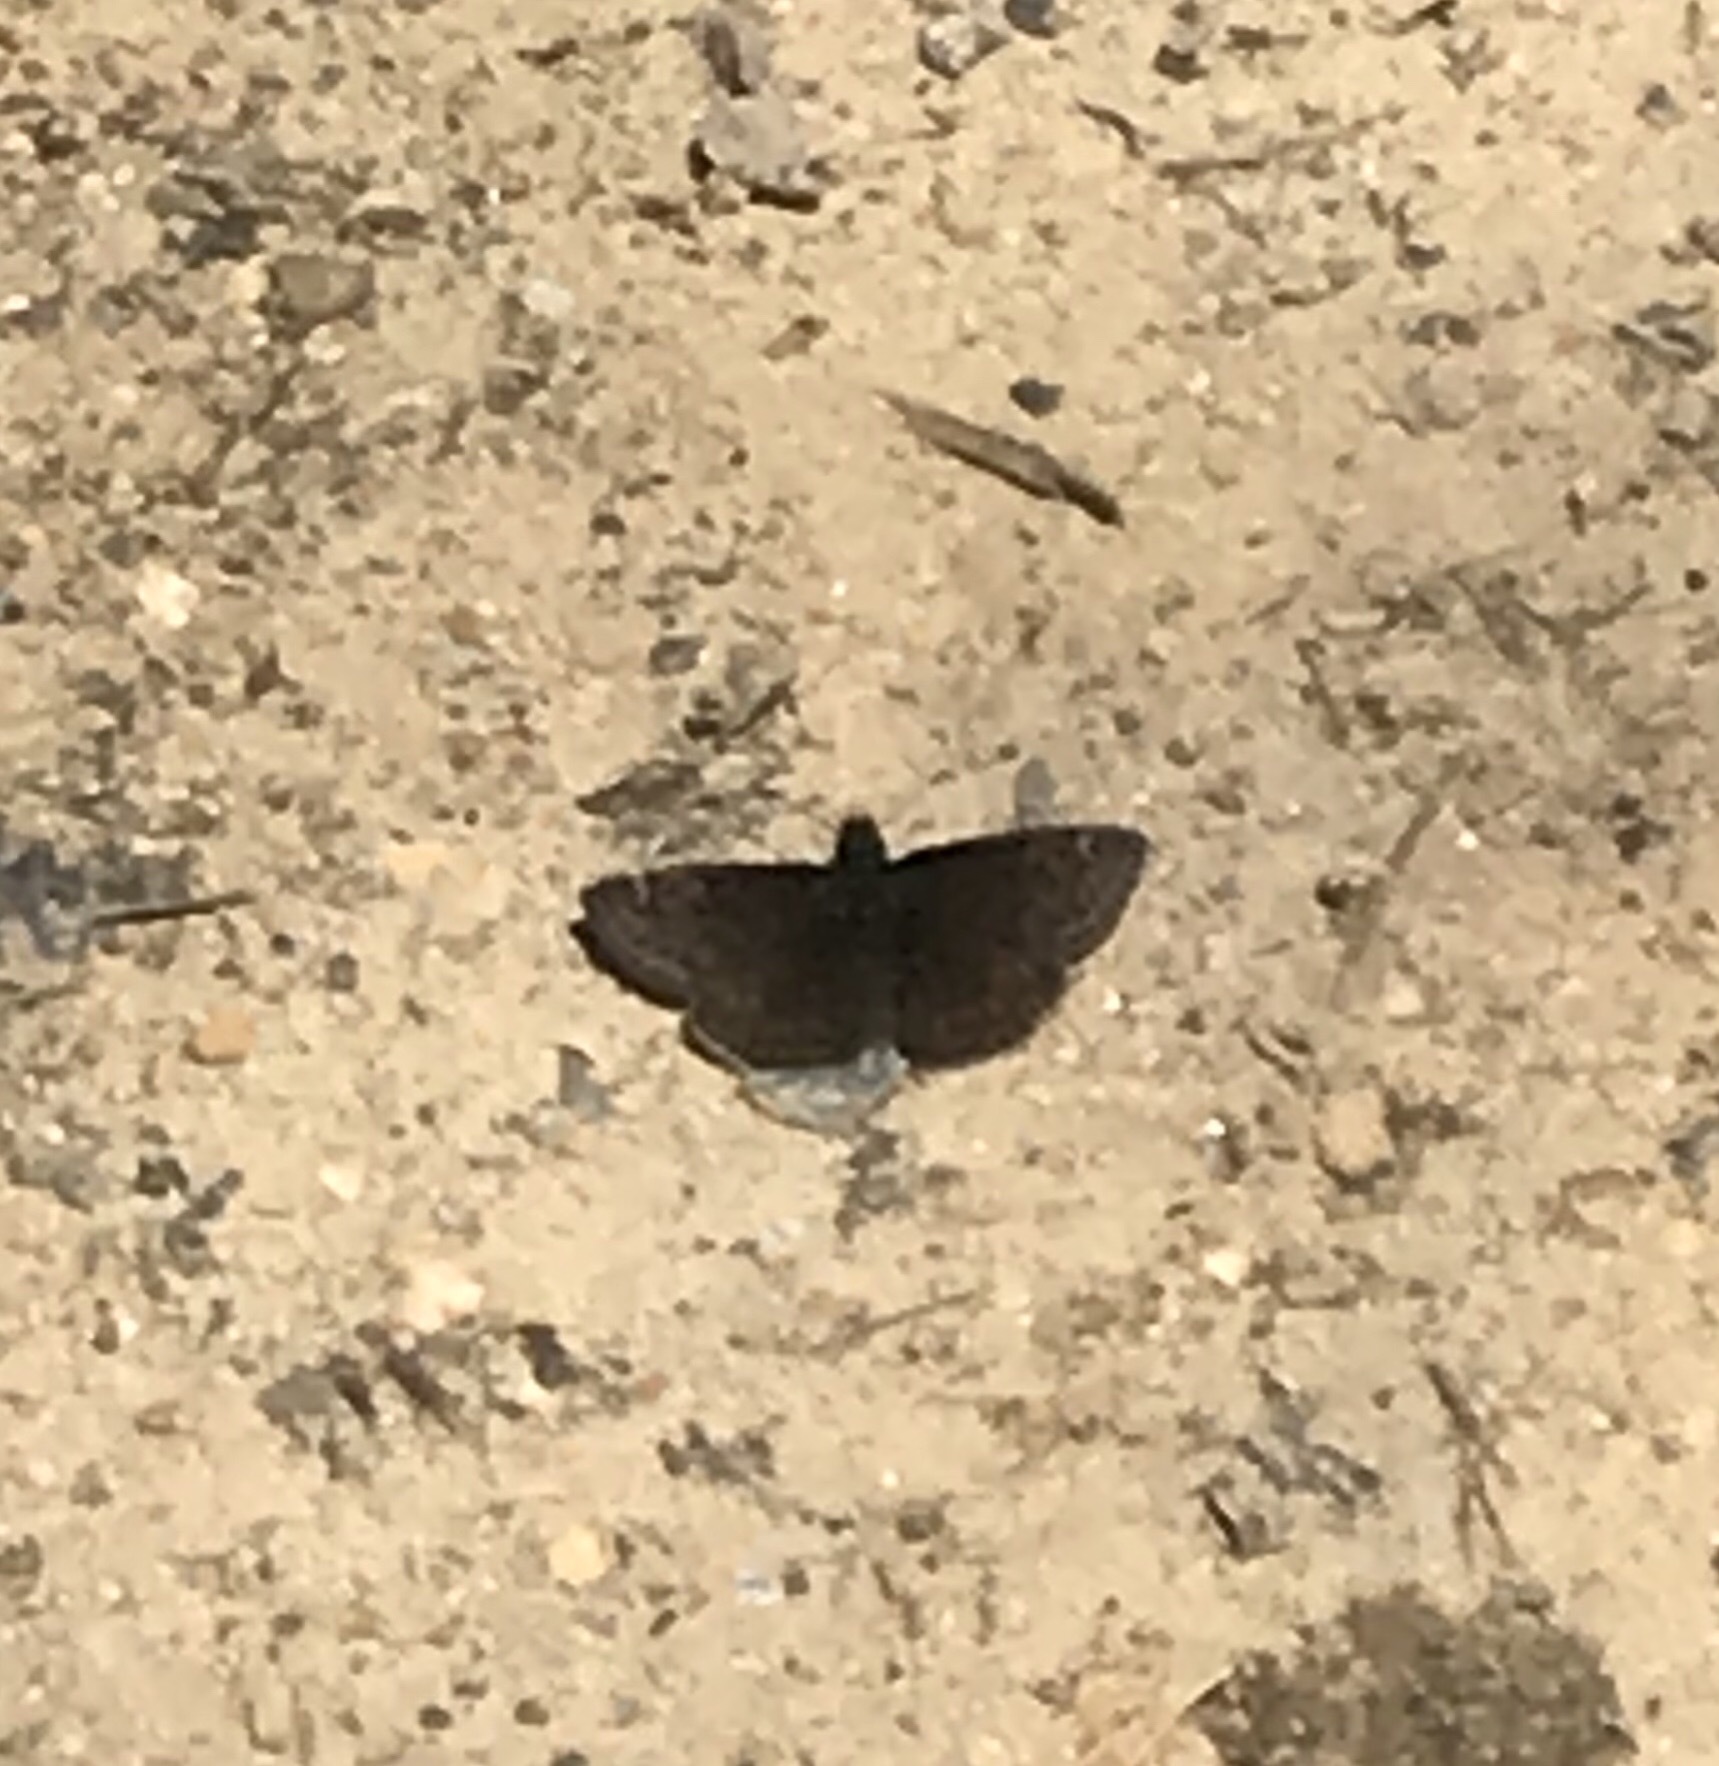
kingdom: Animalia
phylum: Arthropoda
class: Insecta
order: Lepidoptera
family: Hesperiidae
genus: Erynnis
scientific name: Erynnis baptisiae
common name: Wild indigo duskywing
